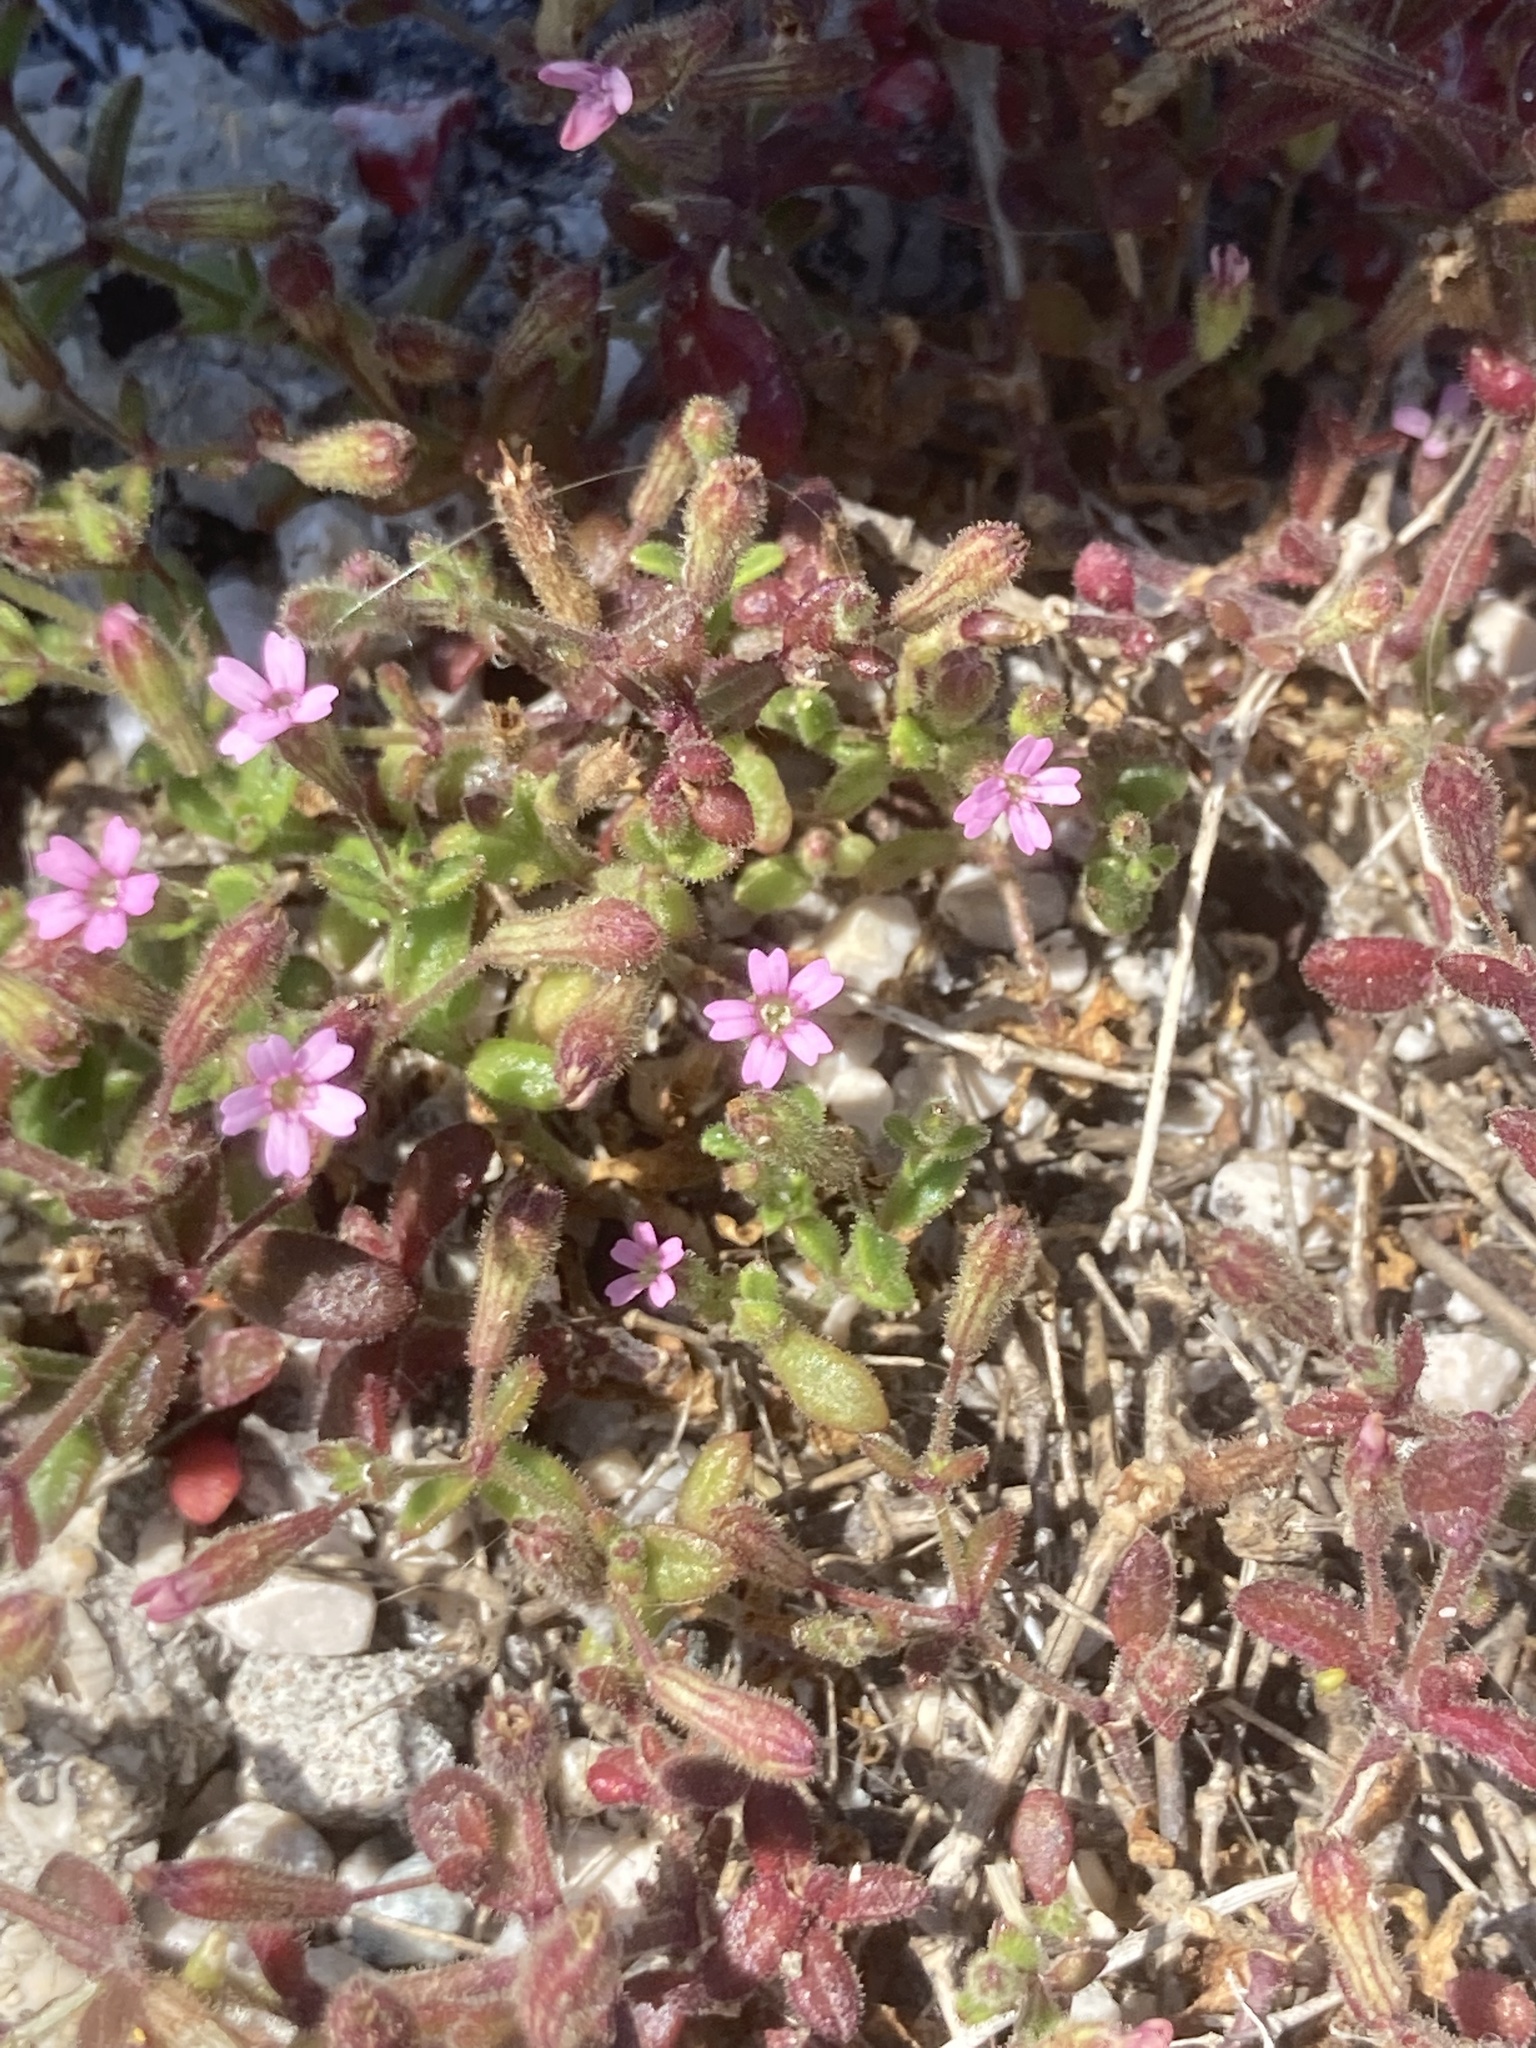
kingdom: Plantae
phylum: Tracheophyta
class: Magnoliopsida
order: Caryophyllales
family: Caryophyllaceae
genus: Silene
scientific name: Silene sedoides
